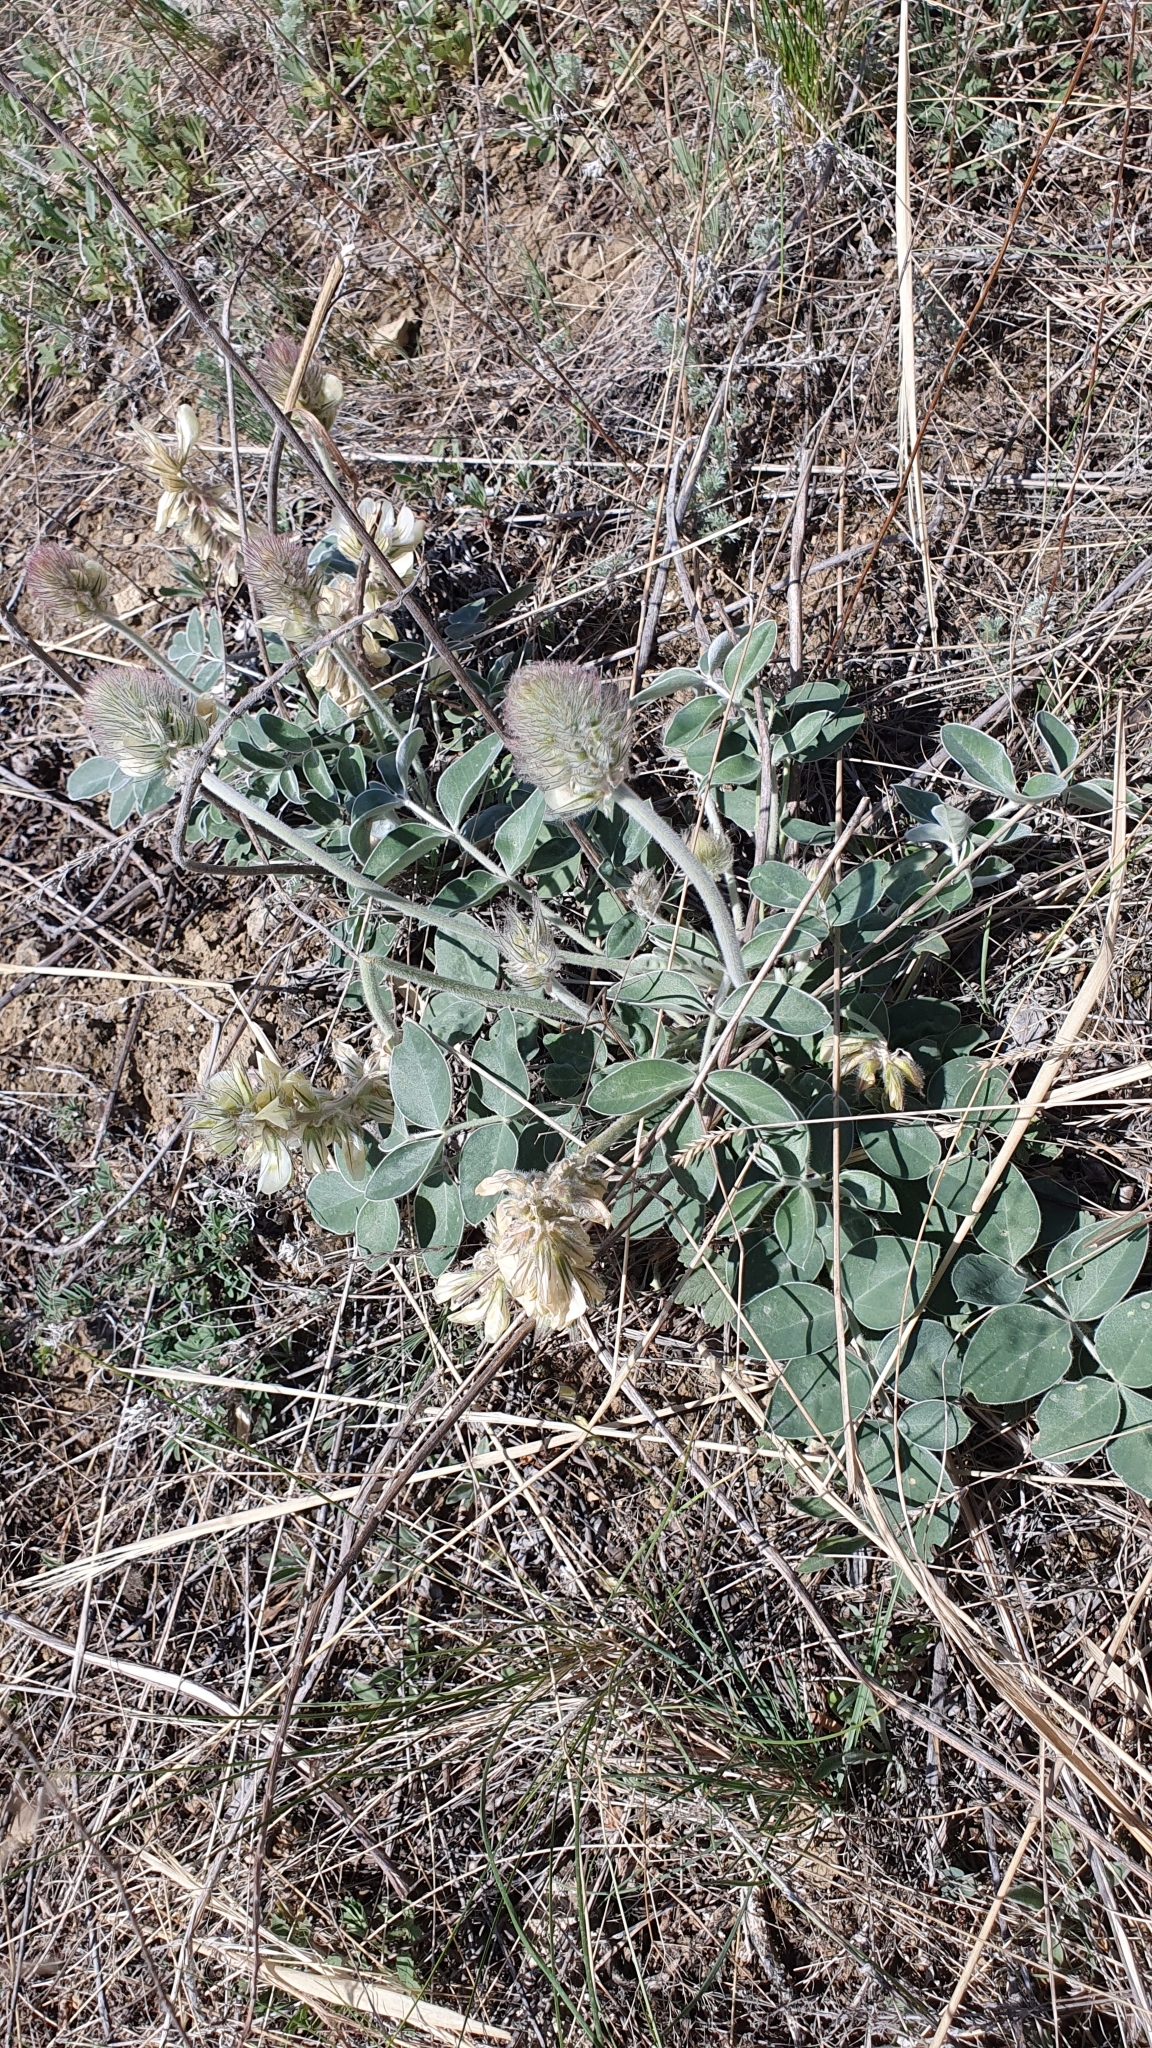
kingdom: Plantae
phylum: Tracheophyta
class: Magnoliopsida
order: Fabales
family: Fabaceae
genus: Hedysarum
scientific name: Hedysarum grandiflorum
